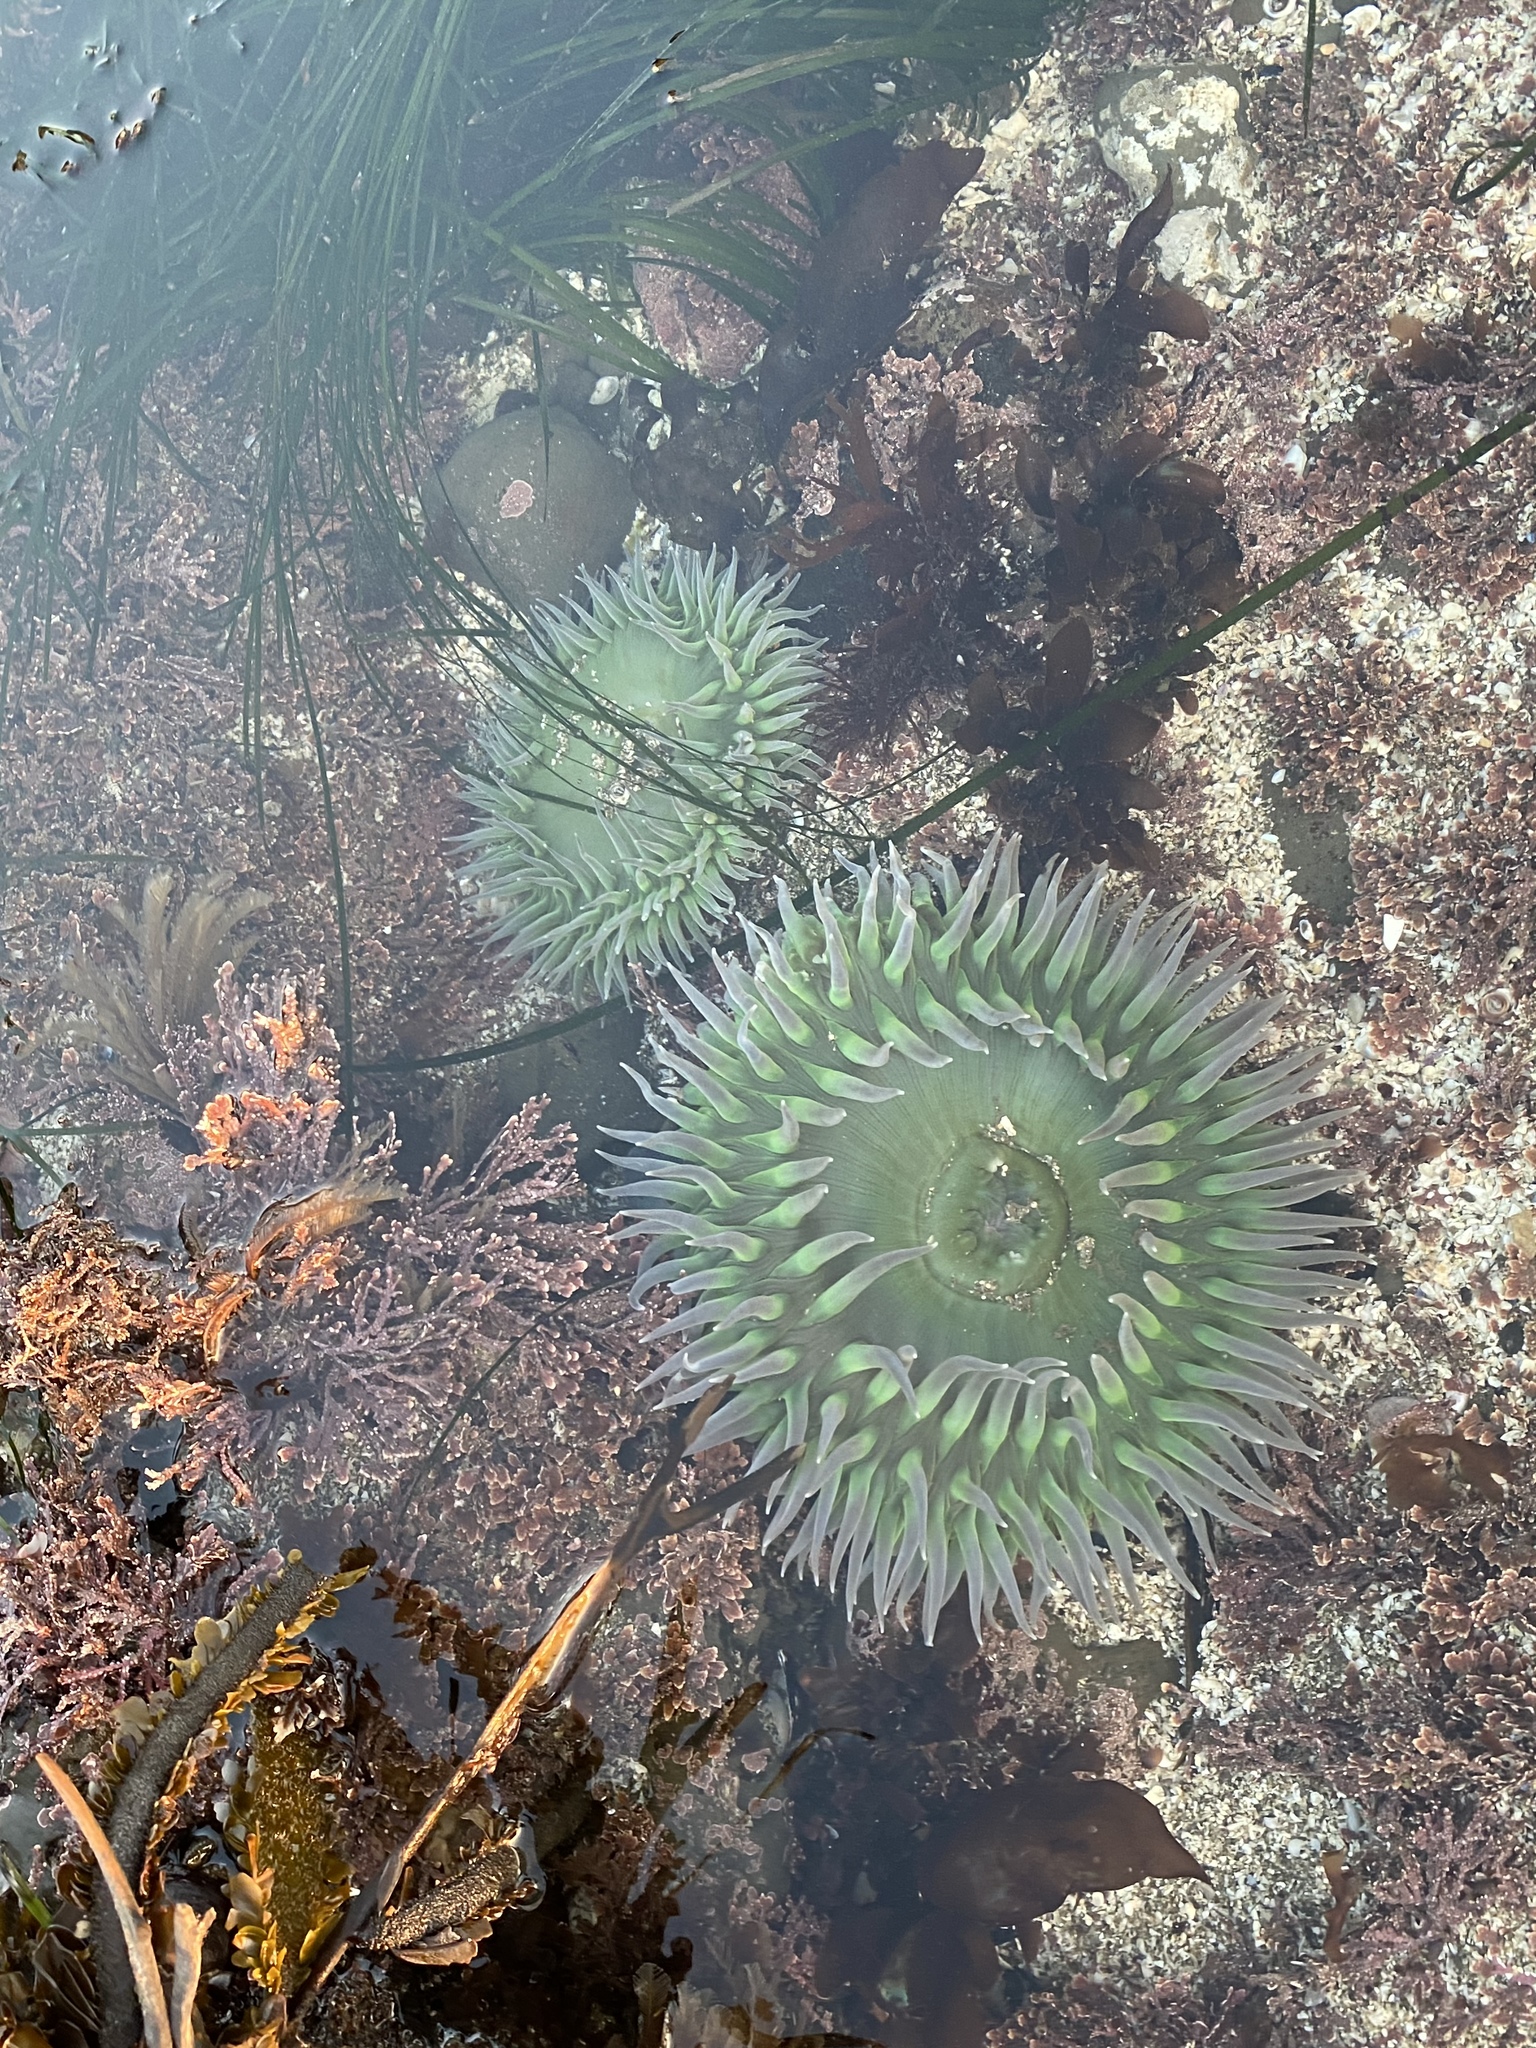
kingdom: Animalia
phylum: Cnidaria
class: Anthozoa
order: Actiniaria
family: Actiniidae
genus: Anthopleura
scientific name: Anthopleura xanthogrammica
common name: Giant green anemone
